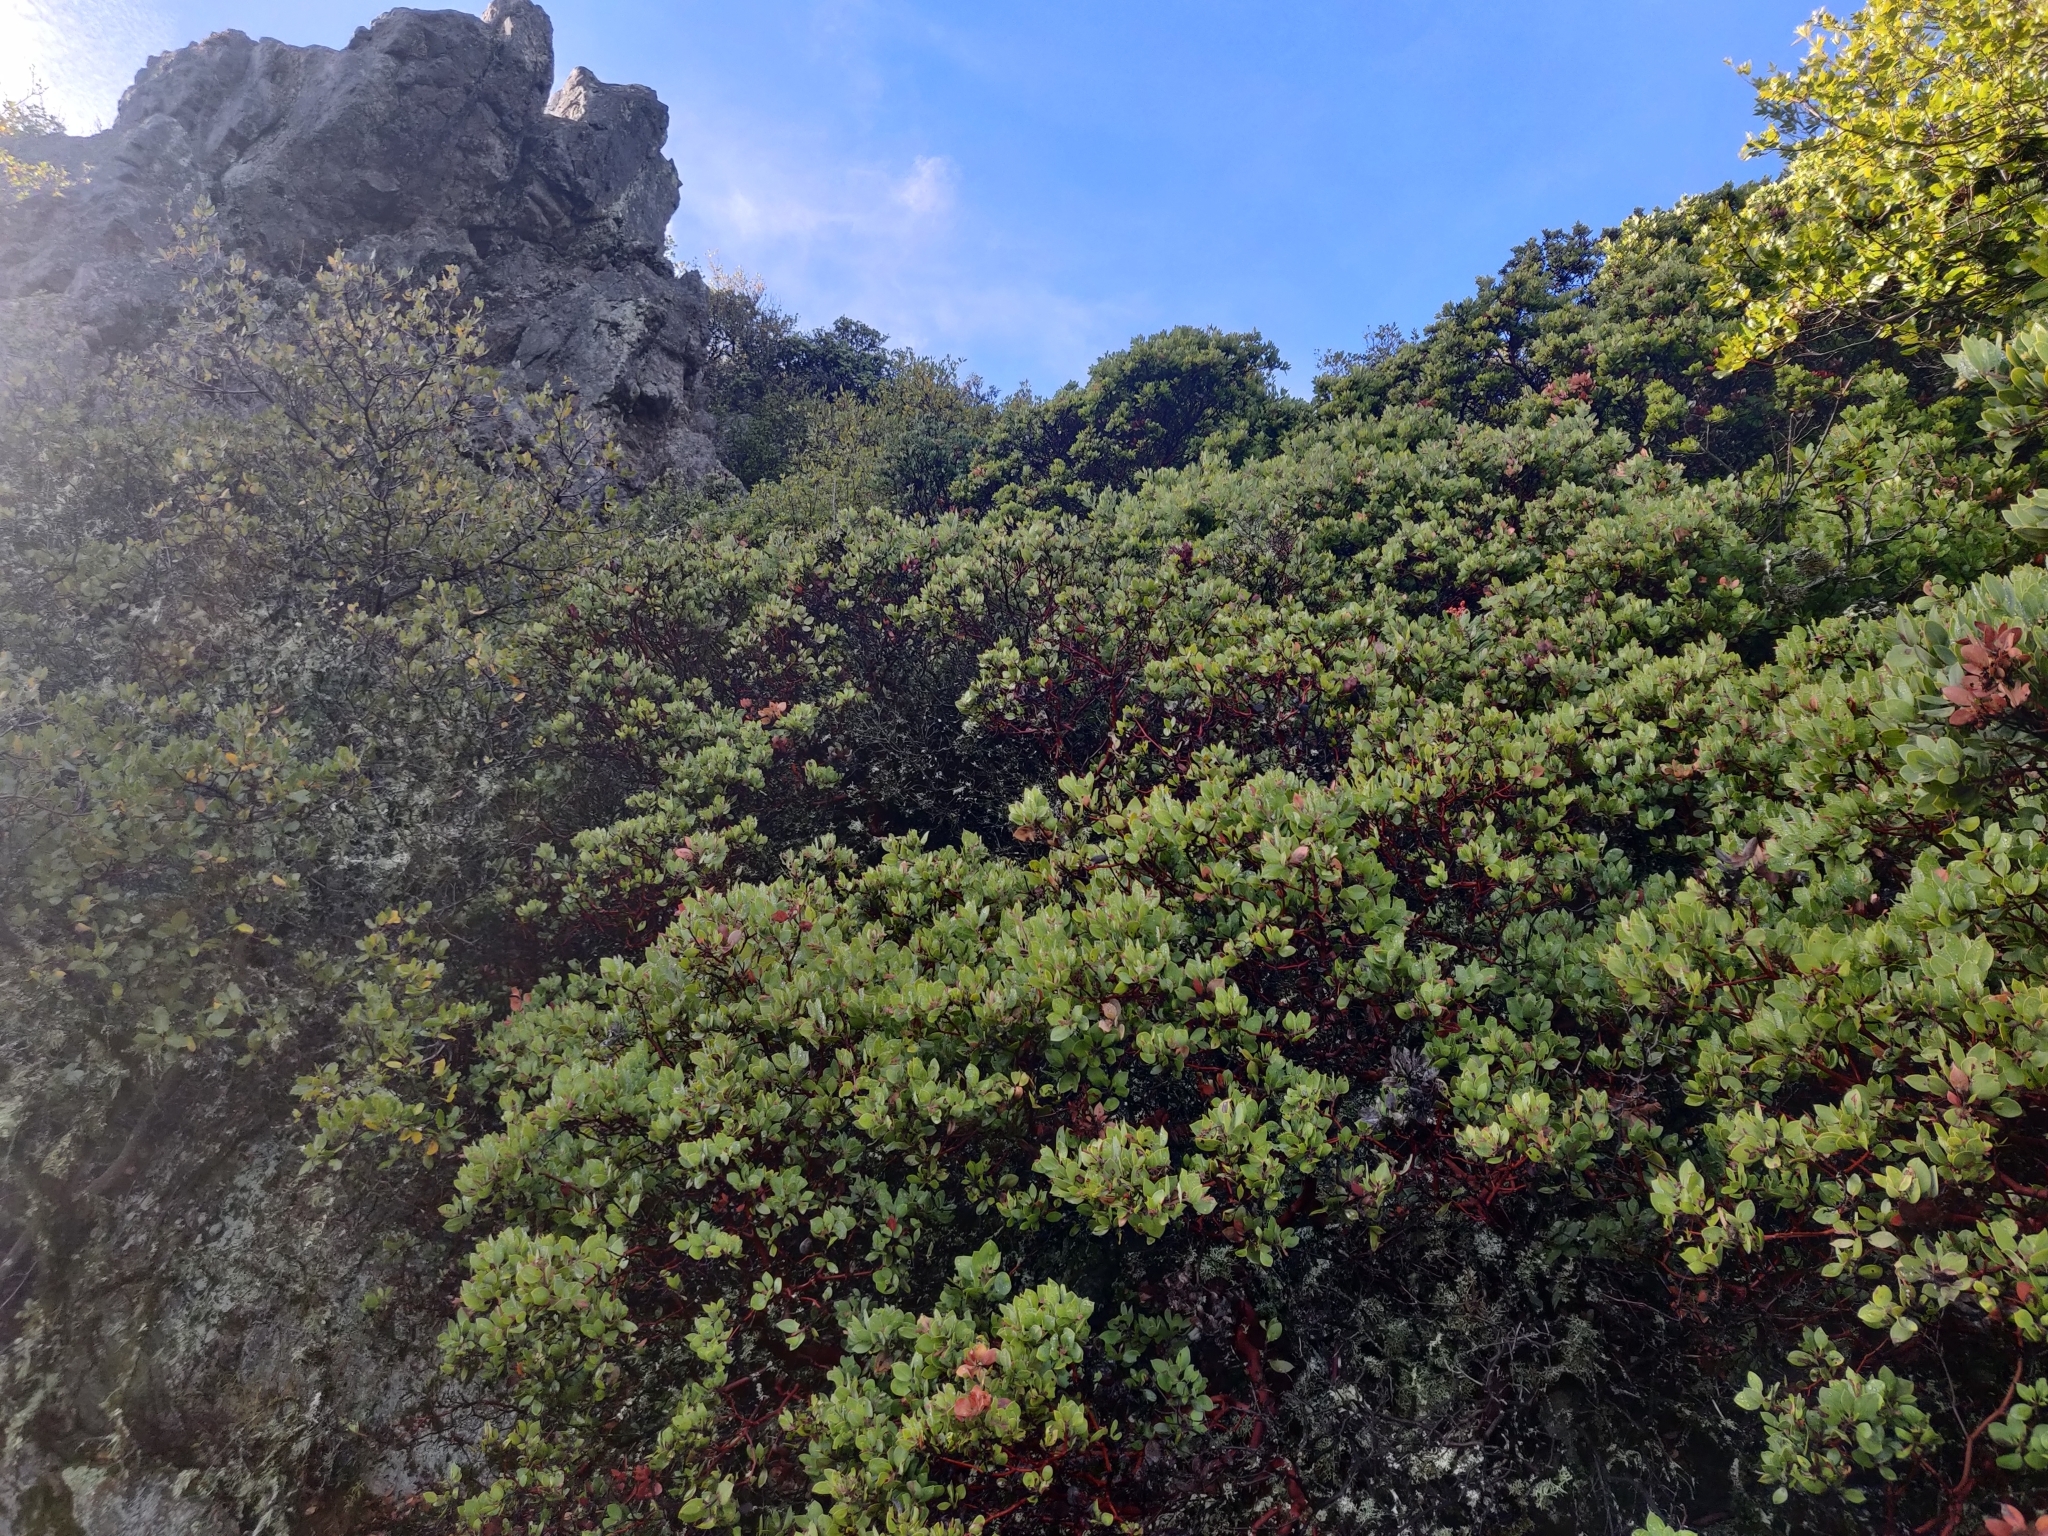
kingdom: Plantae
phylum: Tracheophyta
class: Magnoliopsida
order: Ericales
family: Ericaceae
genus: Arctostaphylos
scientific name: Arctostaphylos glandulosa
